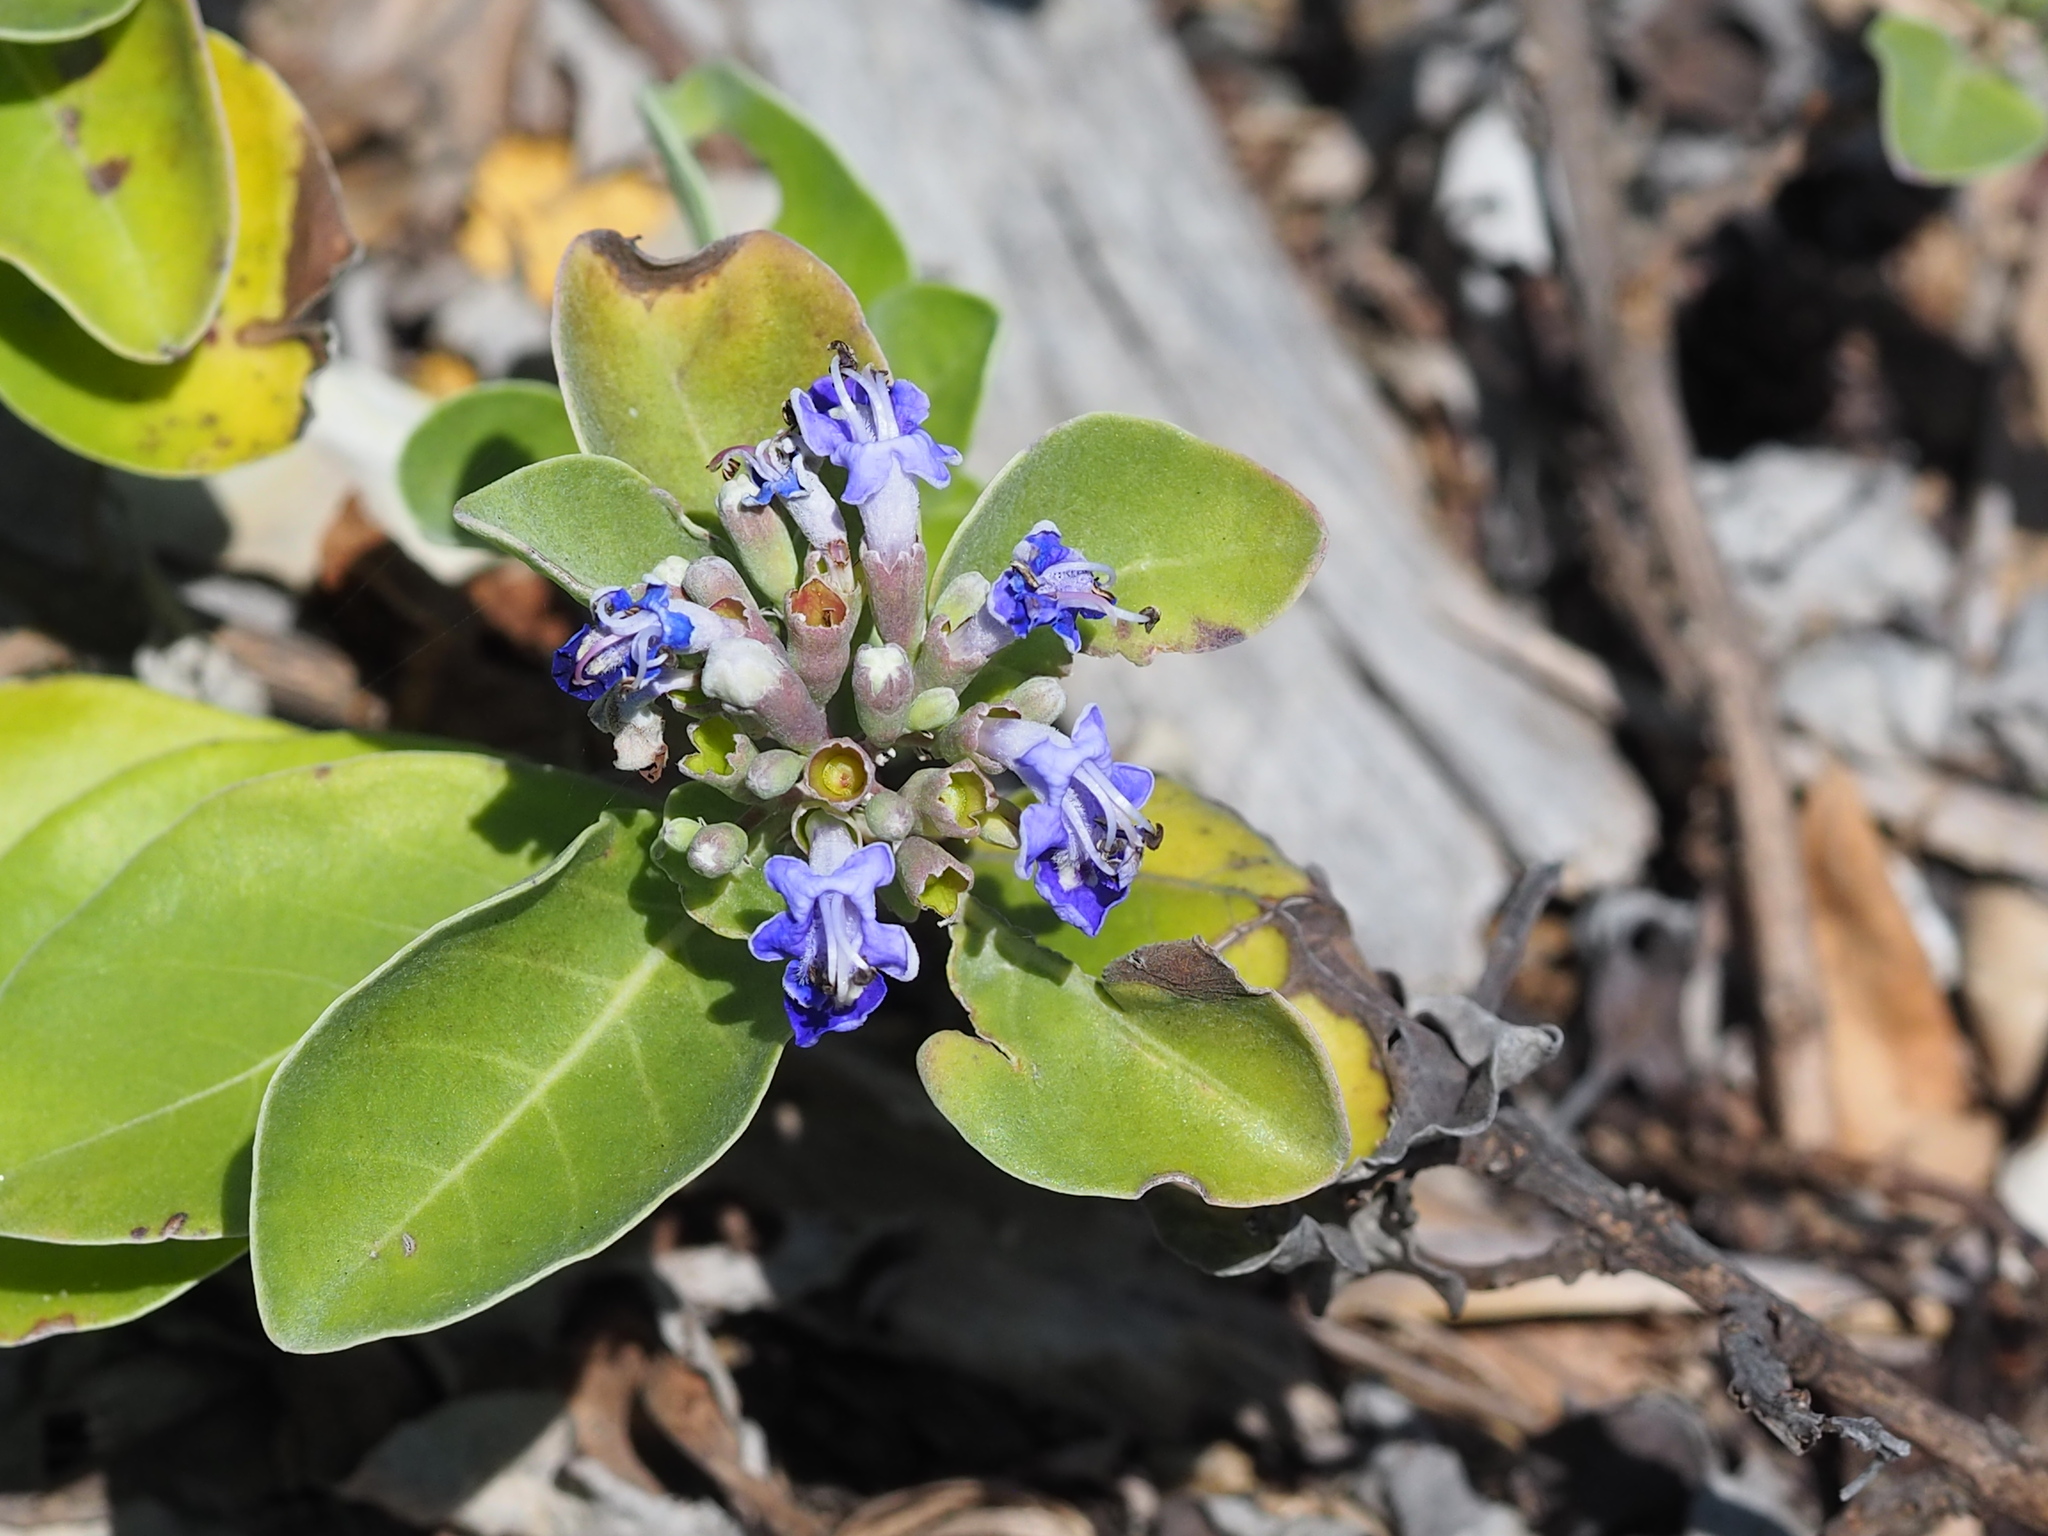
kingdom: Plantae
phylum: Tracheophyta
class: Magnoliopsida
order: Lamiales
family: Lamiaceae
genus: Vitex
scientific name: Vitex rotundifolia
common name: Beach vitex
